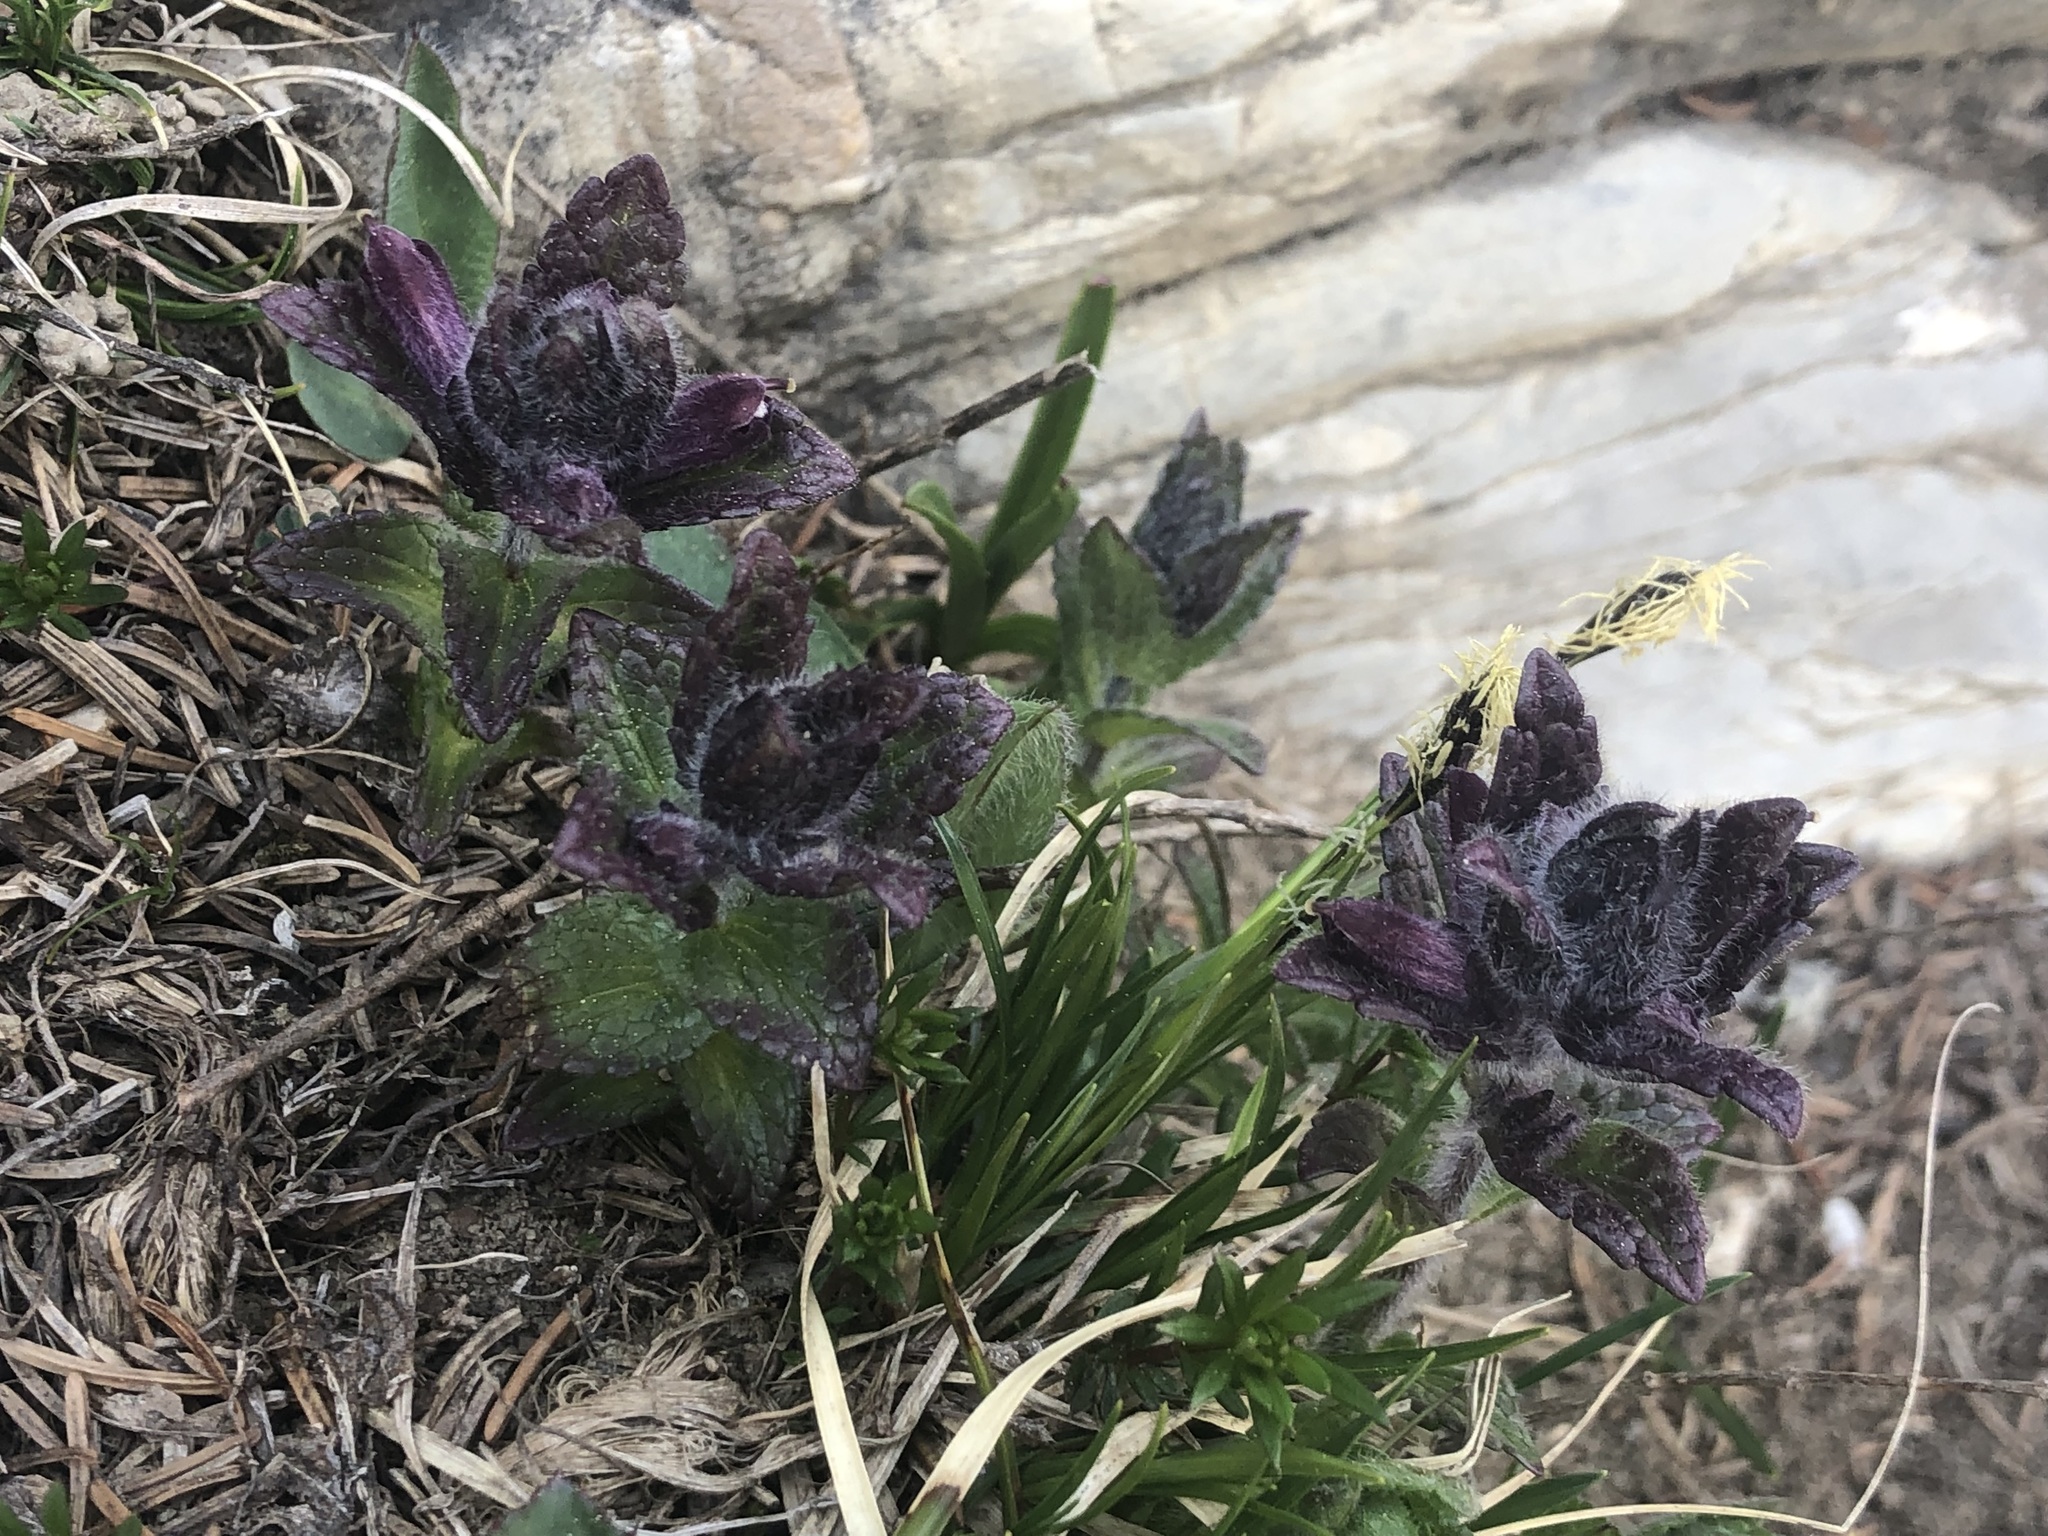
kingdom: Plantae
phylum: Tracheophyta
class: Magnoliopsida
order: Lamiales
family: Orobanchaceae
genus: Bartsia
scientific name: Bartsia alpina
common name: Alpine bartsia
